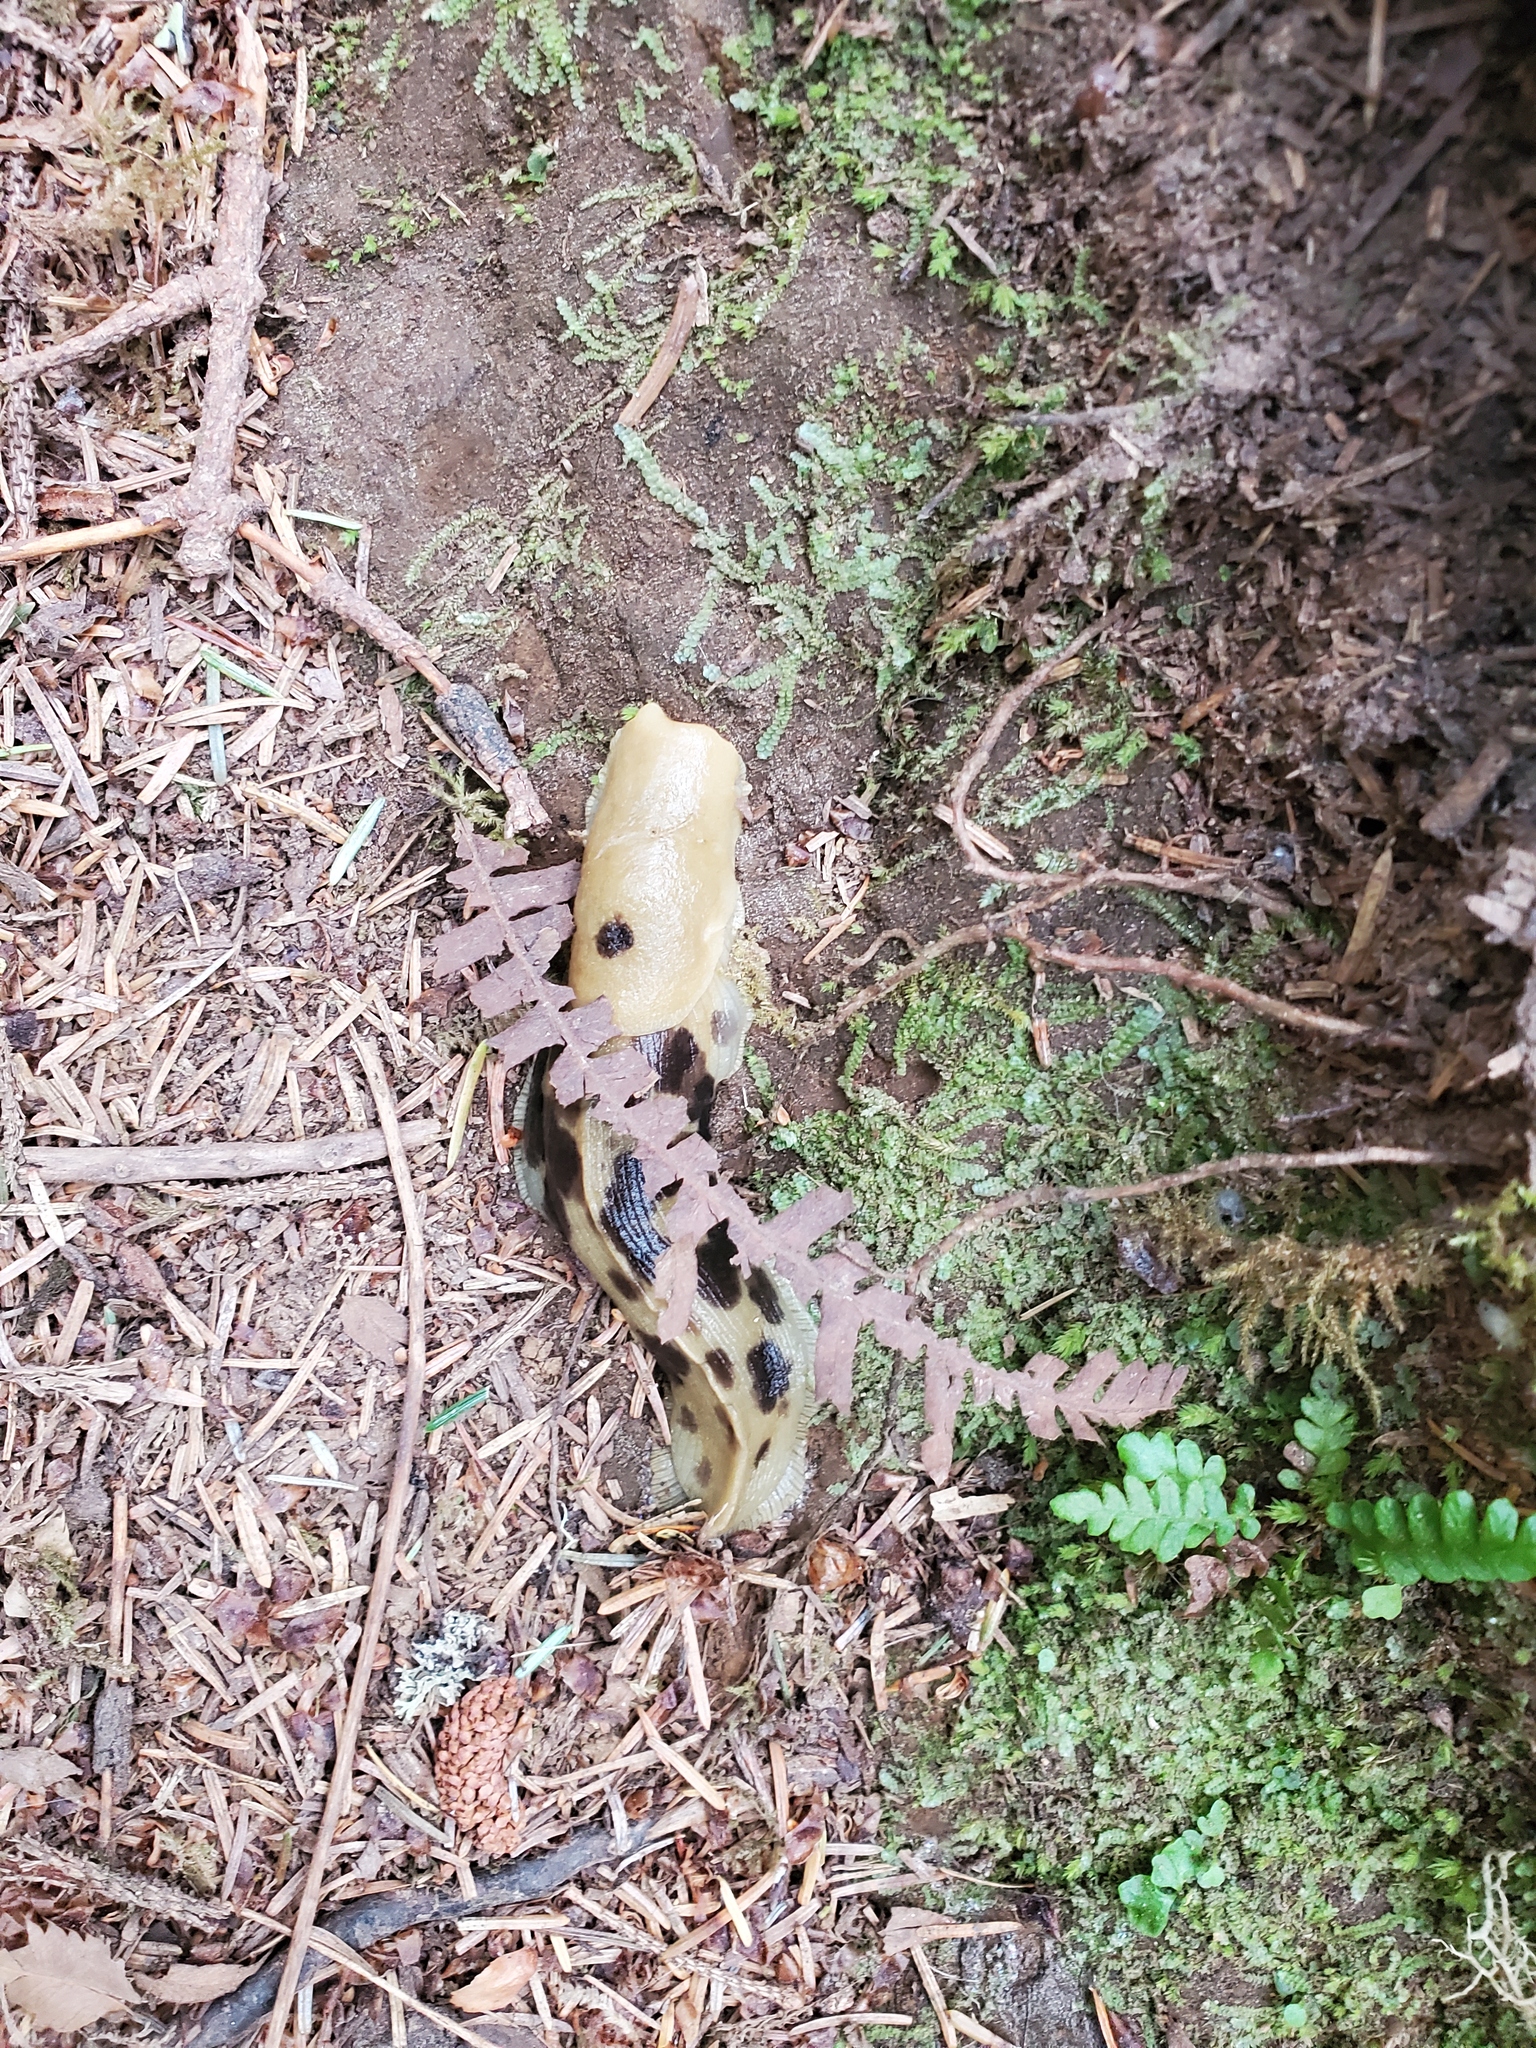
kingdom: Animalia
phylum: Mollusca
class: Gastropoda
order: Stylommatophora
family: Ariolimacidae
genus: Ariolimax
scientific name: Ariolimax columbianus
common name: Pacific banana slug
